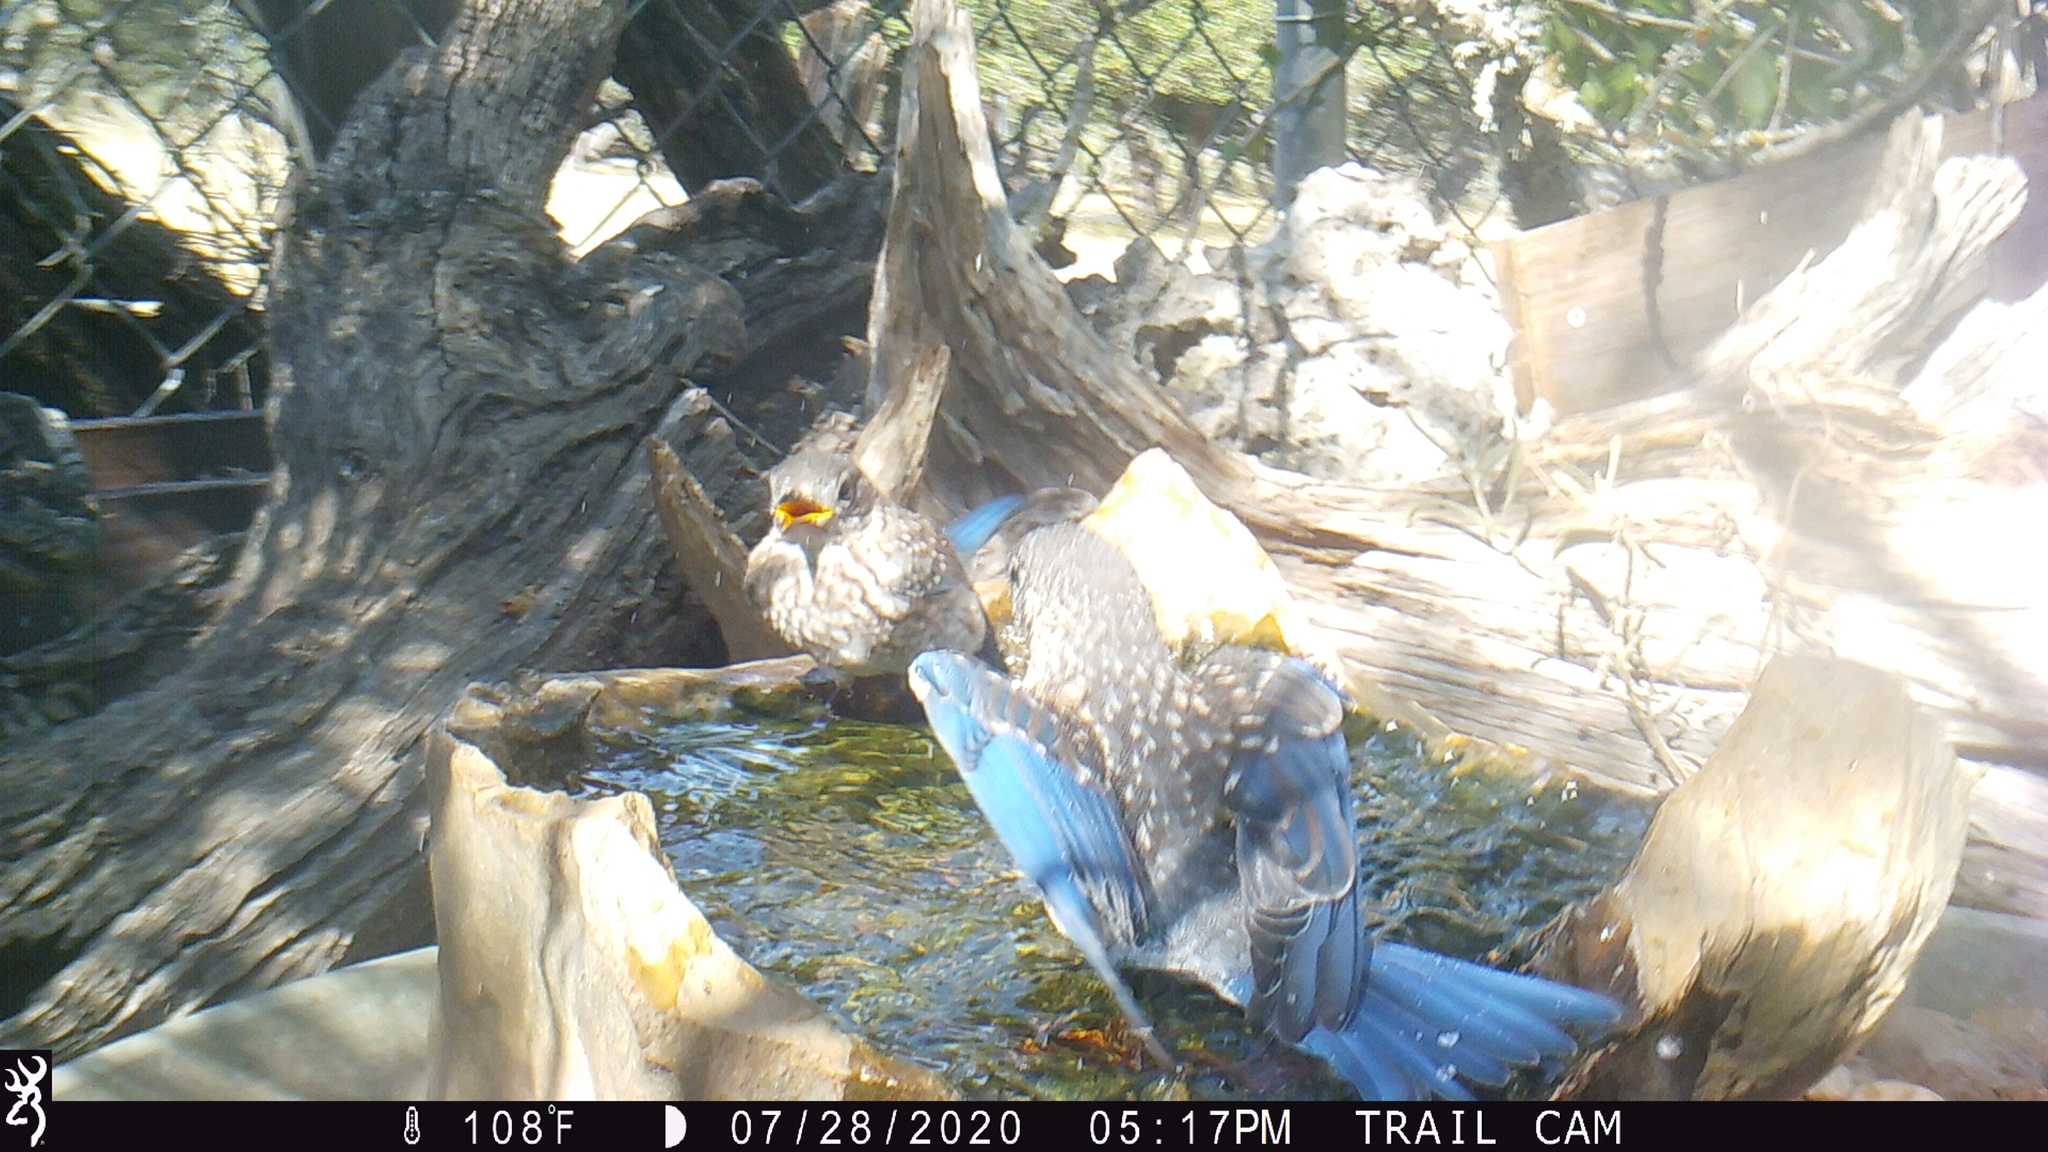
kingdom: Animalia
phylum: Chordata
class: Aves
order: Passeriformes
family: Turdidae
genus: Sialia
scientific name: Sialia sialis
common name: Eastern bluebird
